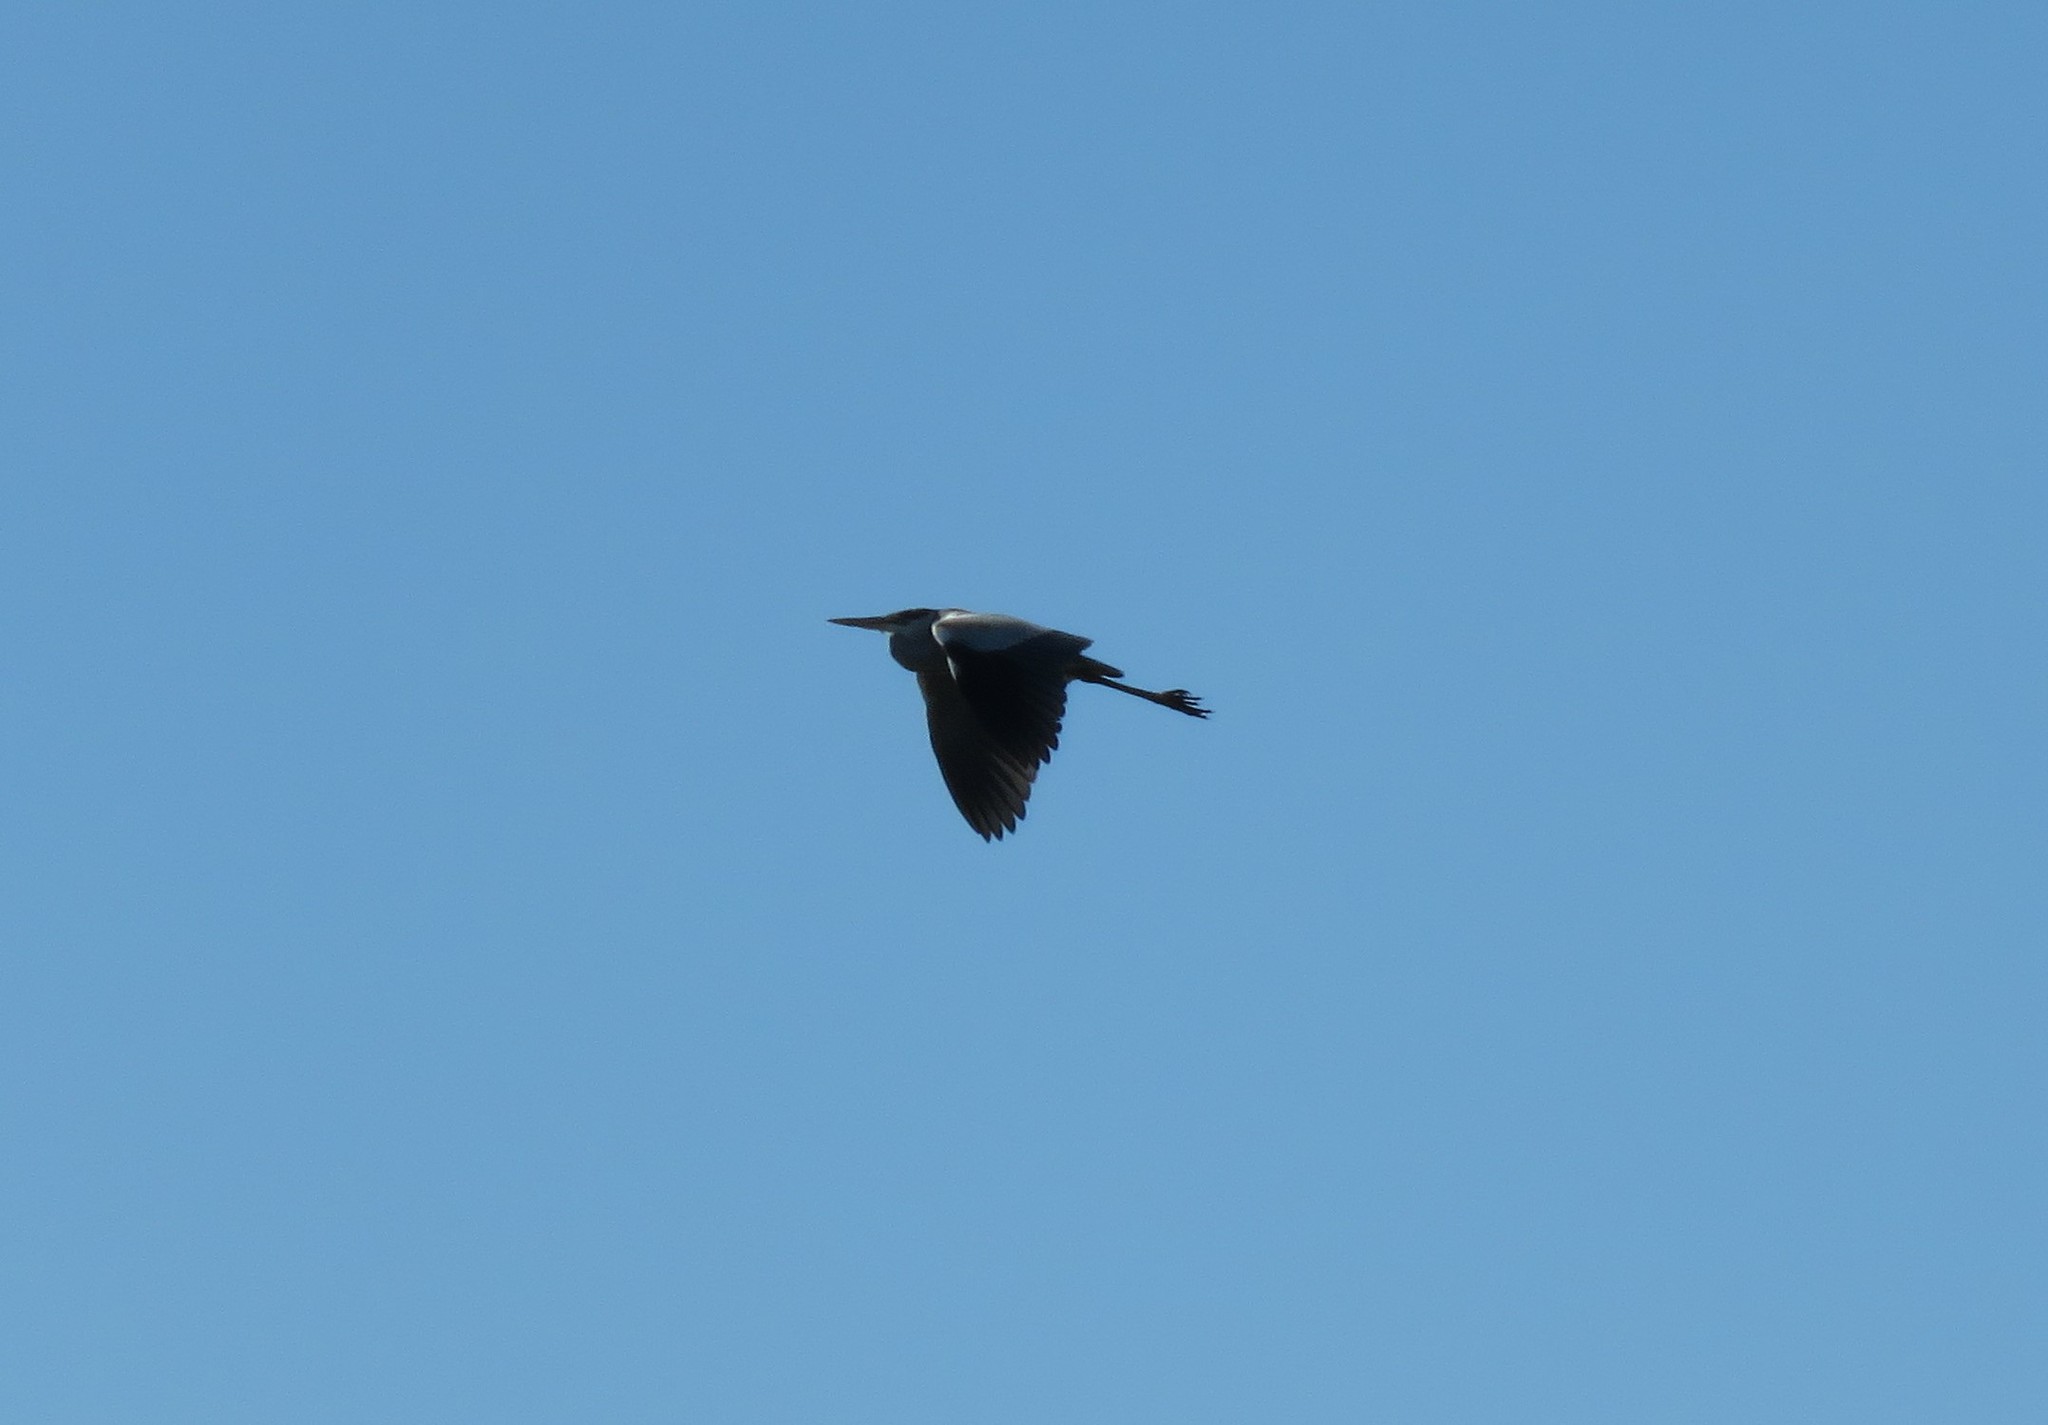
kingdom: Animalia
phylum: Chordata
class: Aves
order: Pelecaniformes
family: Ardeidae
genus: Ardea
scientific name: Ardea cocoi
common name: Cocoi heron
